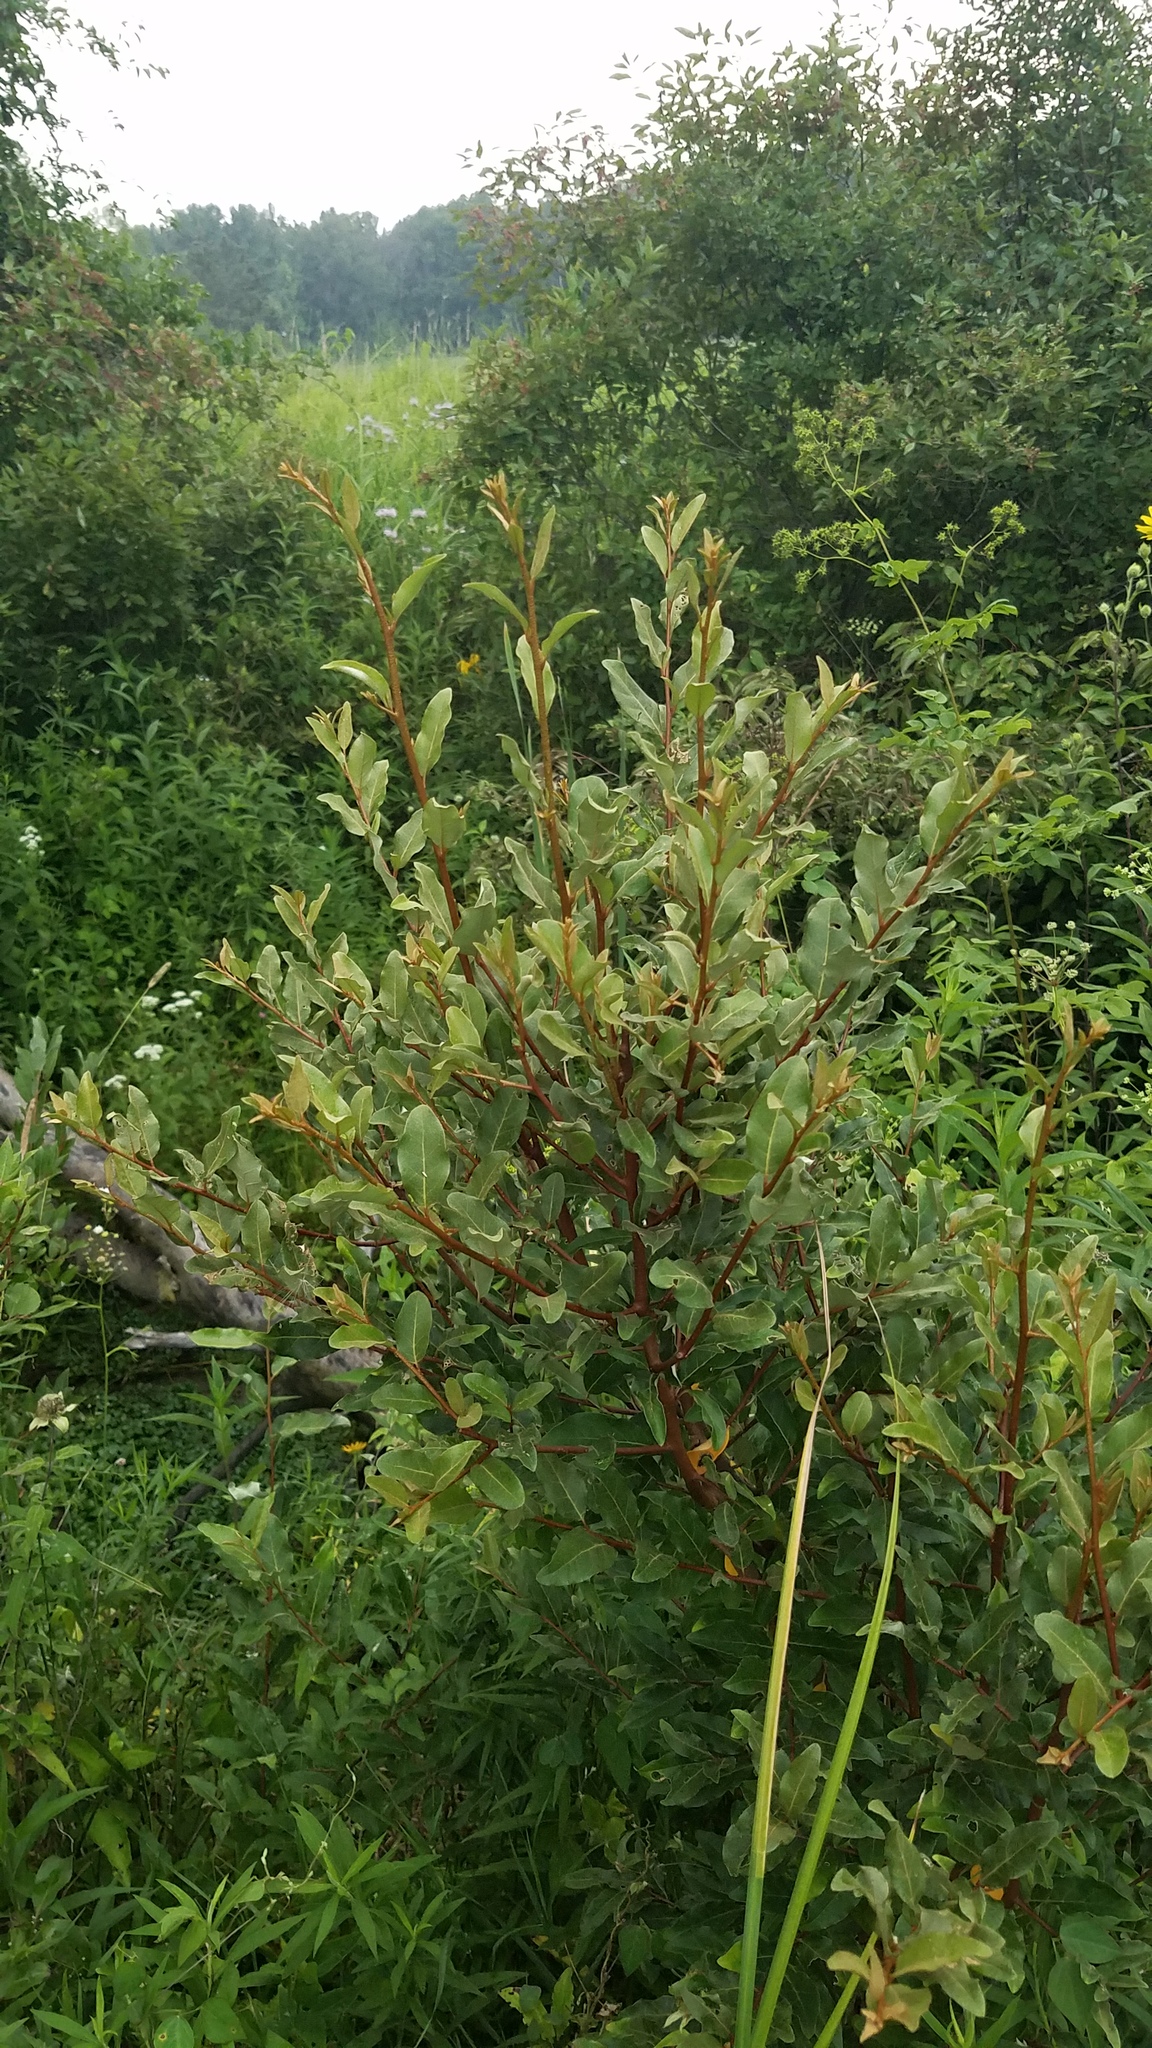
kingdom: Plantae
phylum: Tracheophyta
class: Magnoliopsida
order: Rosales
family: Elaeagnaceae
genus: Elaeagnus
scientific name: Elaeagnus umbellata
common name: Autumn olive
